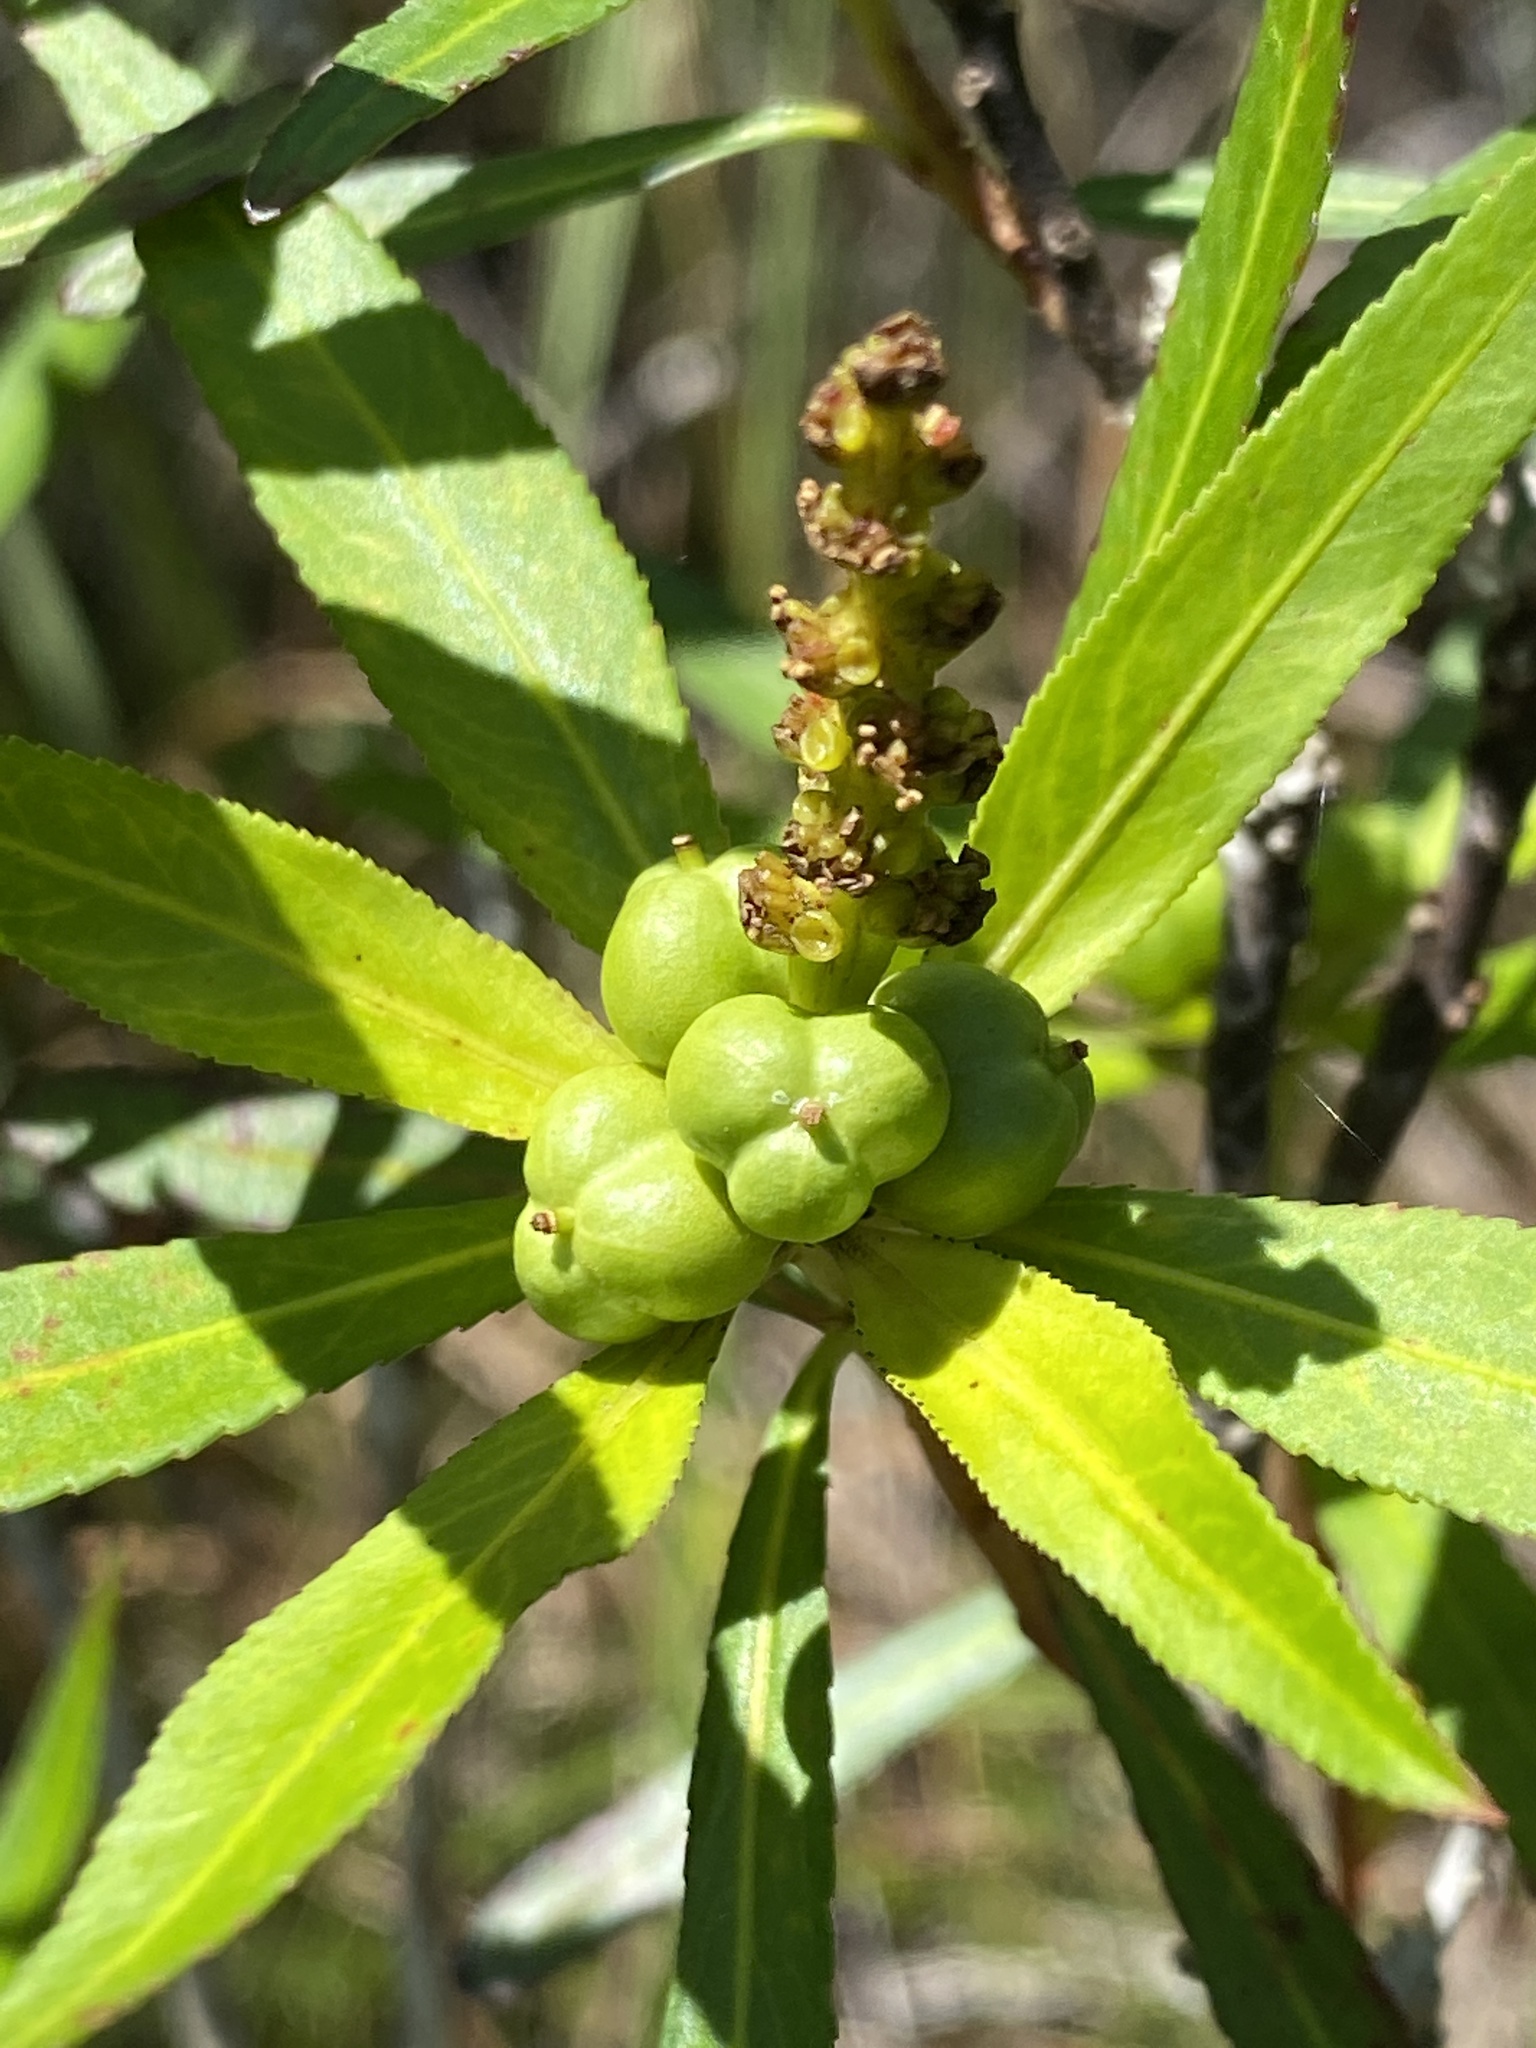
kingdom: Plantae
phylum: Tracheophyta
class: Magnoliopsida
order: Malpighiales
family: Euphorbiaceae
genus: Stillingia
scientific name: Stillingia aquatica
